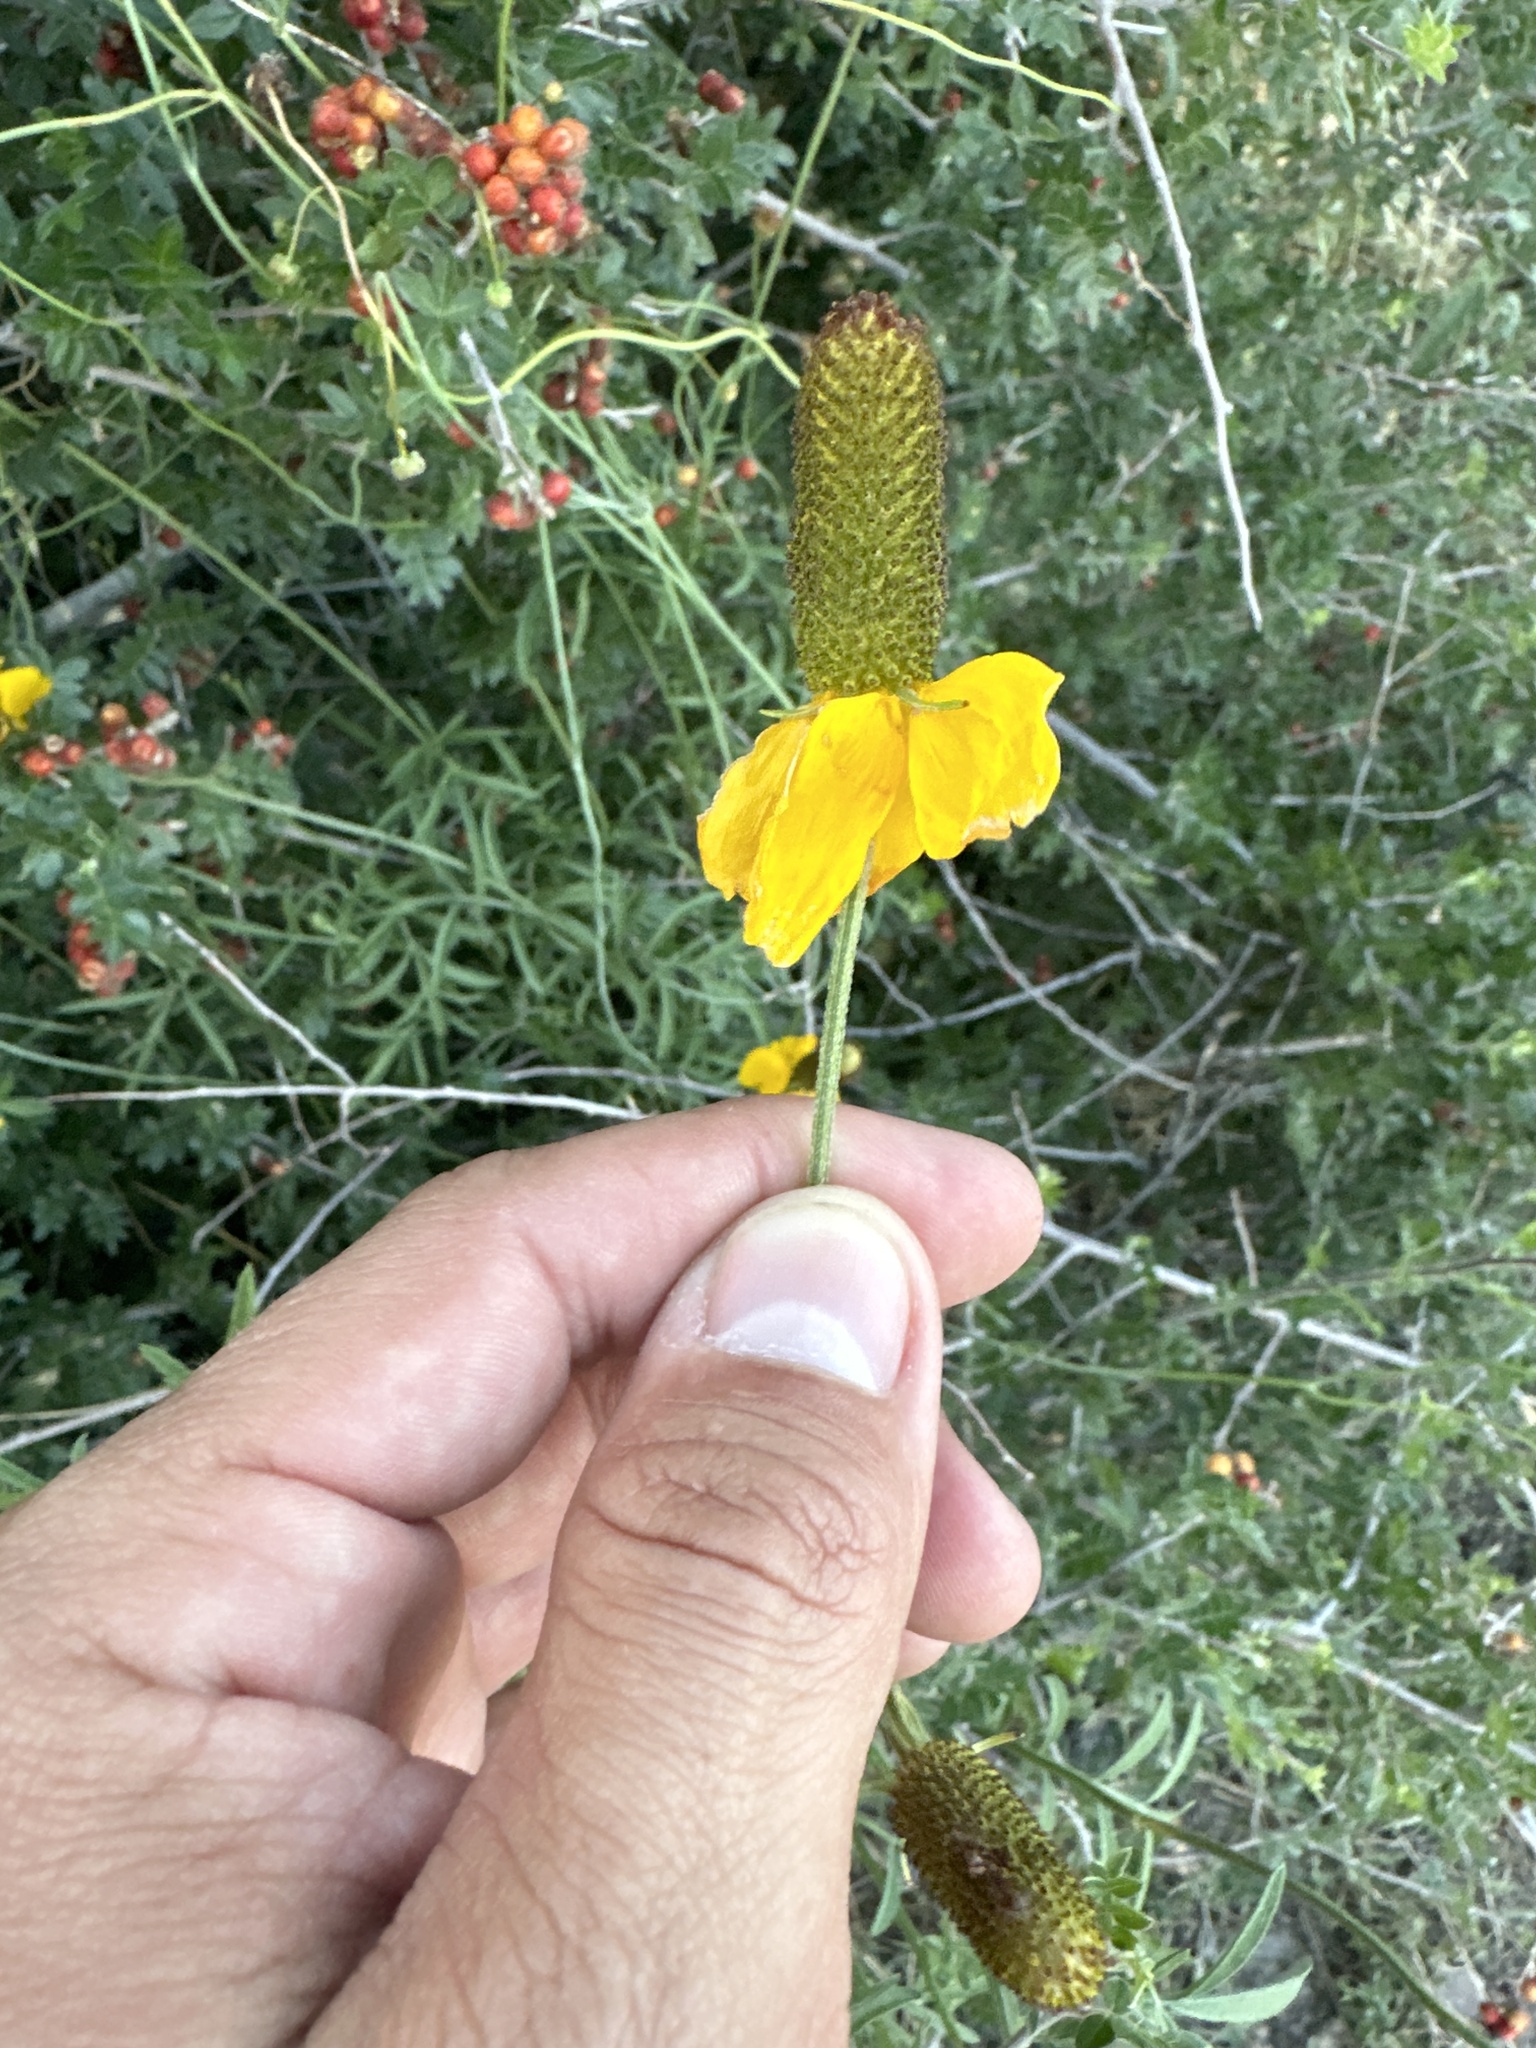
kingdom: Plantae
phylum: Tracheophyta
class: Magnoliopsida
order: Asterales
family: Asteraceae
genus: Ratibida
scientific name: Ratibida columnifera
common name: Prairie coneflower
